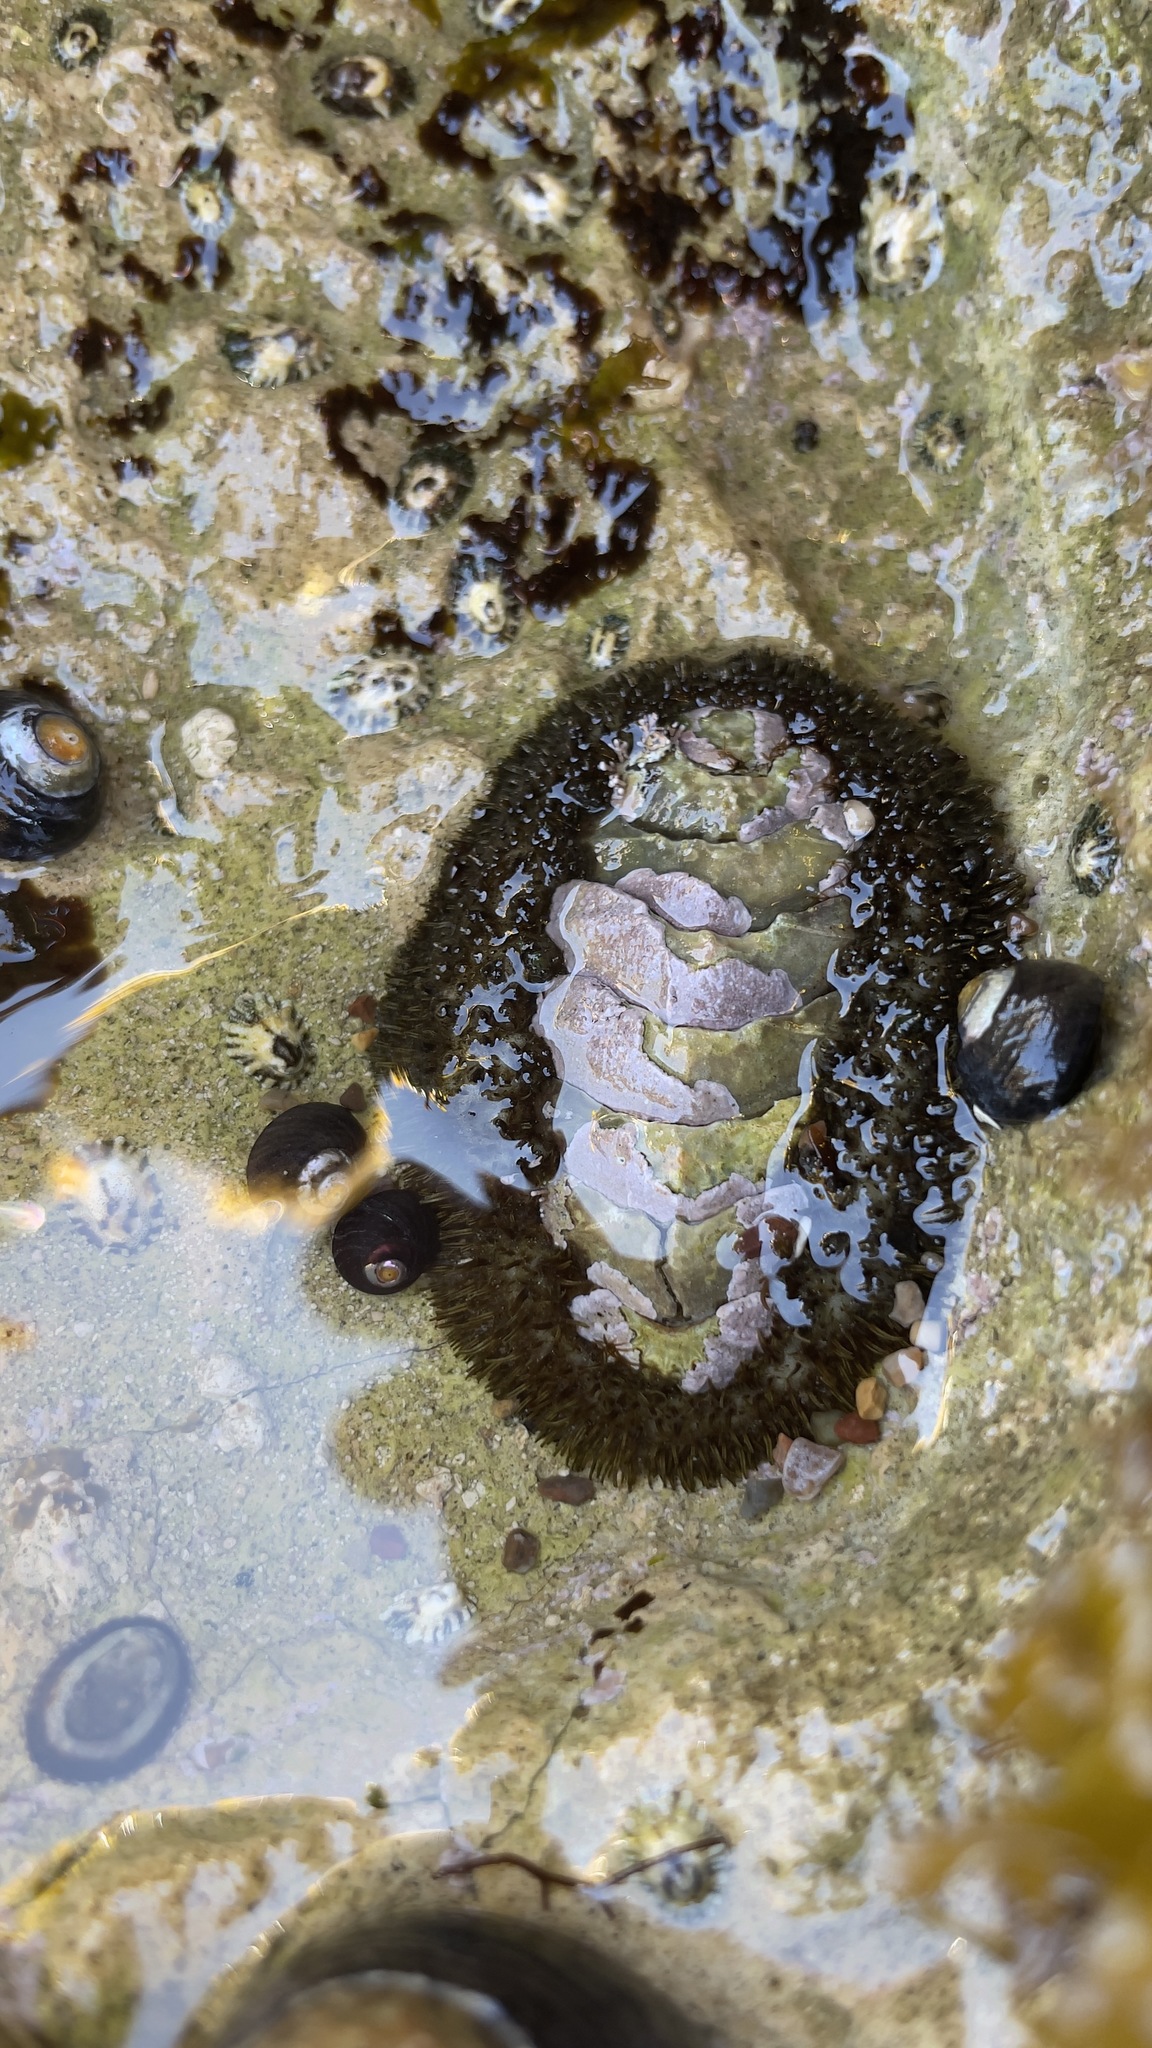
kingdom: Animalia
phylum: Mollusca
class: Polyplacophora
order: Chitonida
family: Mopaliidae
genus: Mopalia
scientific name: Mopalia muscosa
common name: Mossy chiton
